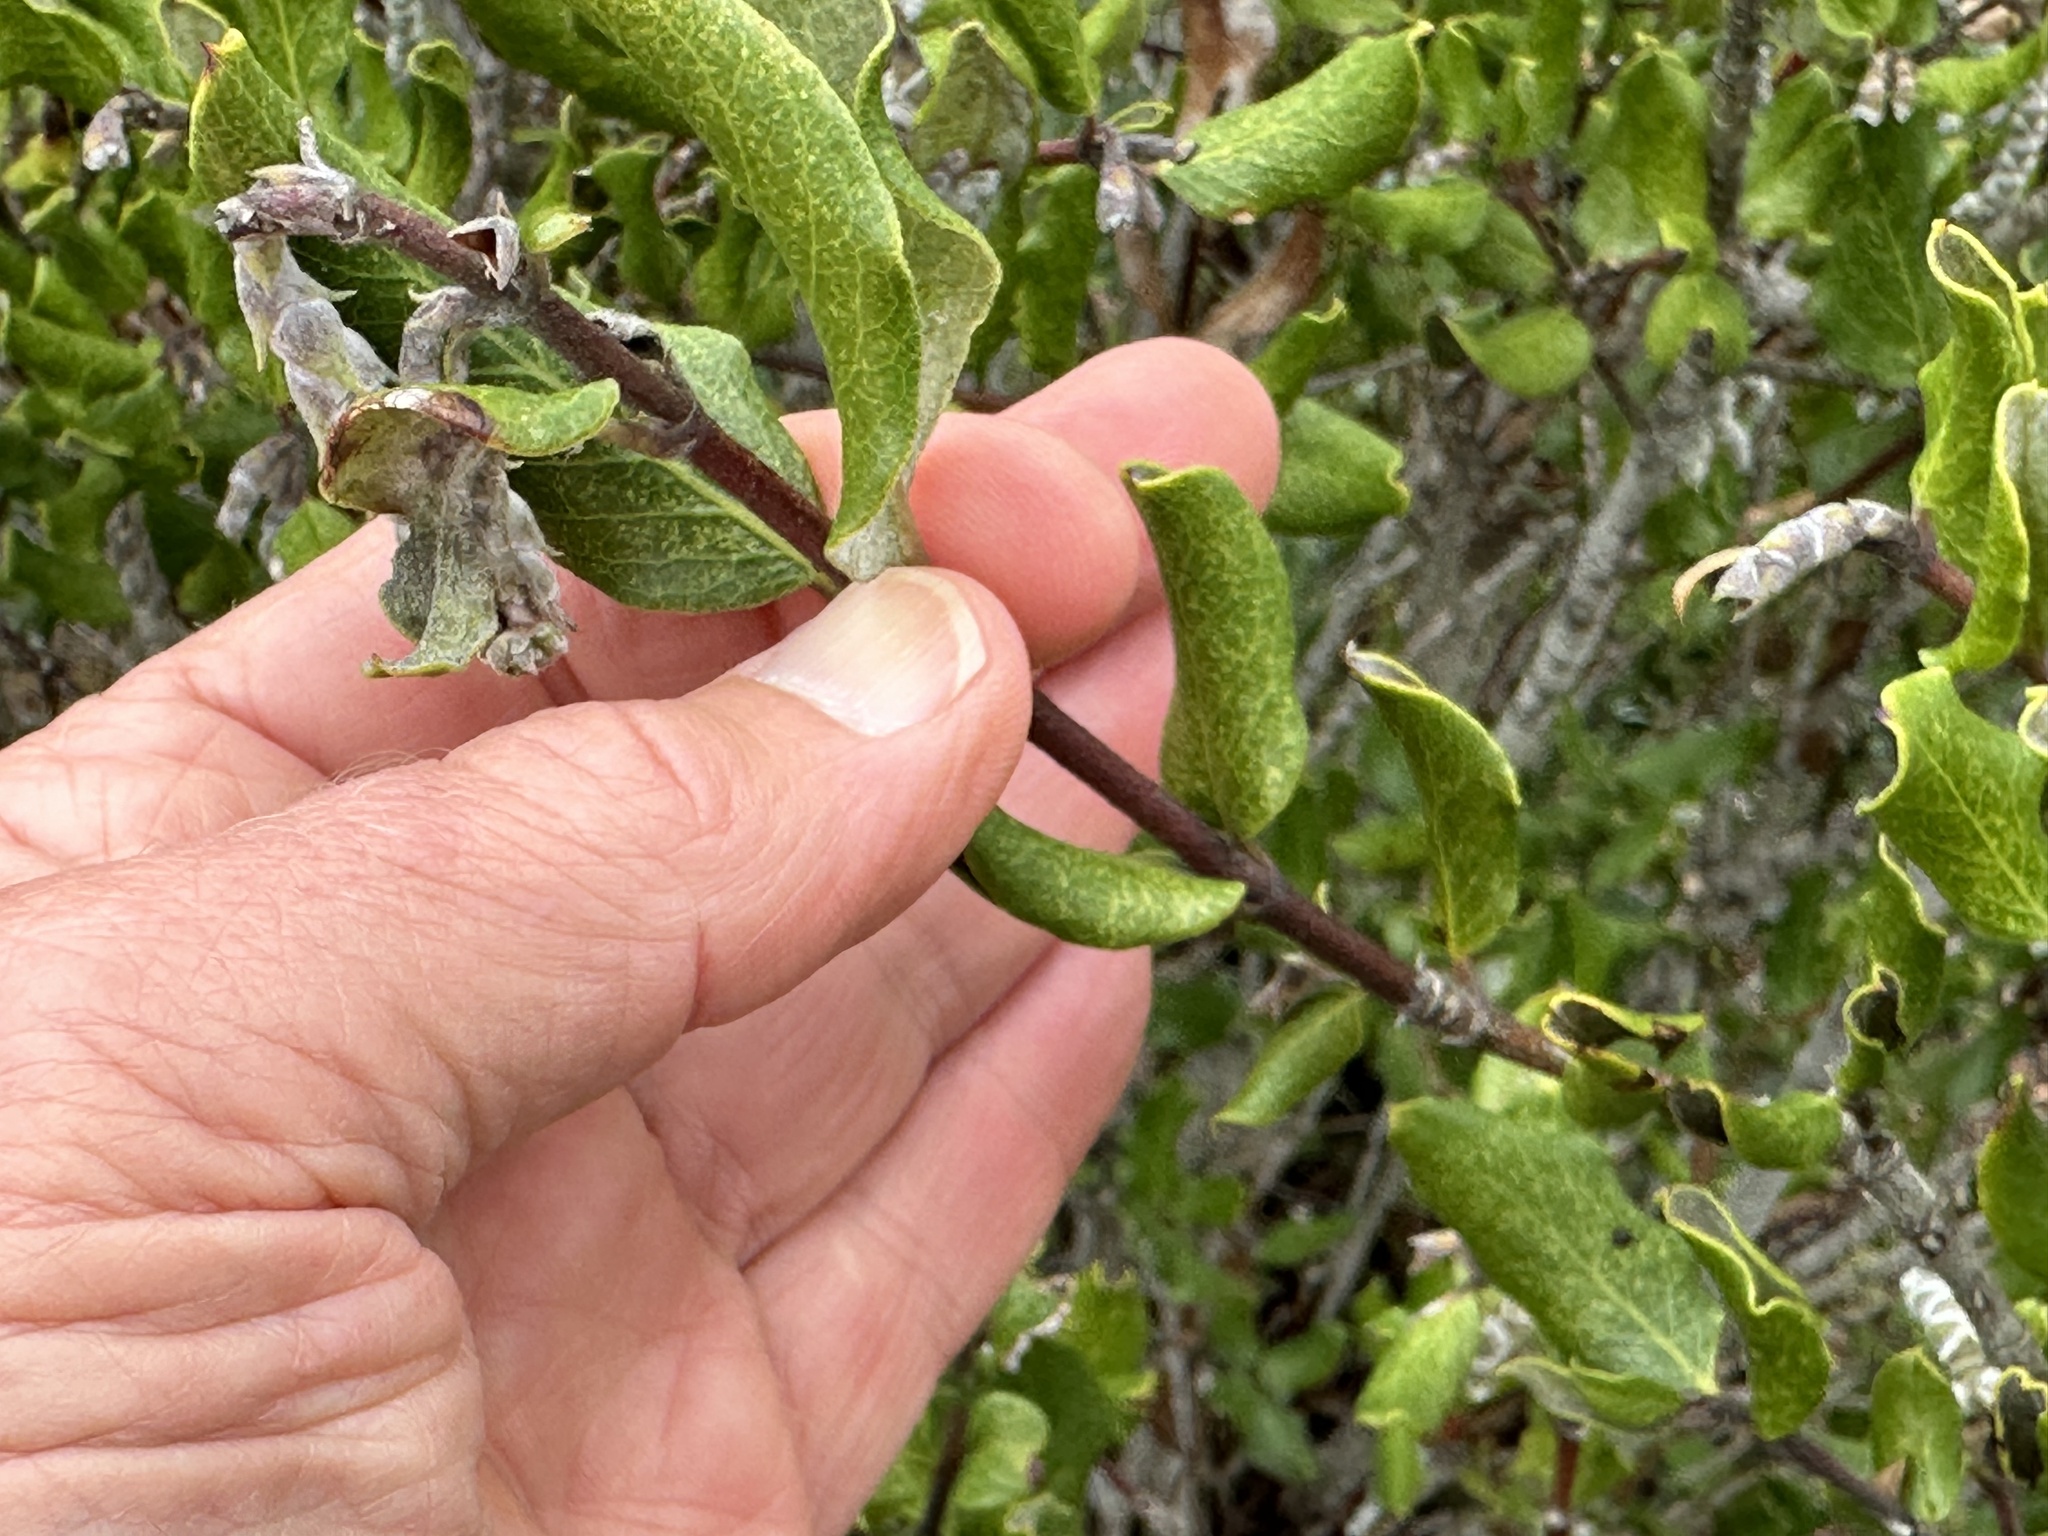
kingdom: Plantae
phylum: Tracheophyta
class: Magnoliopsida
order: Garryales
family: Garryaceae
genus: Garrya
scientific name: Garrya elliptica
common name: Silk-tassel
